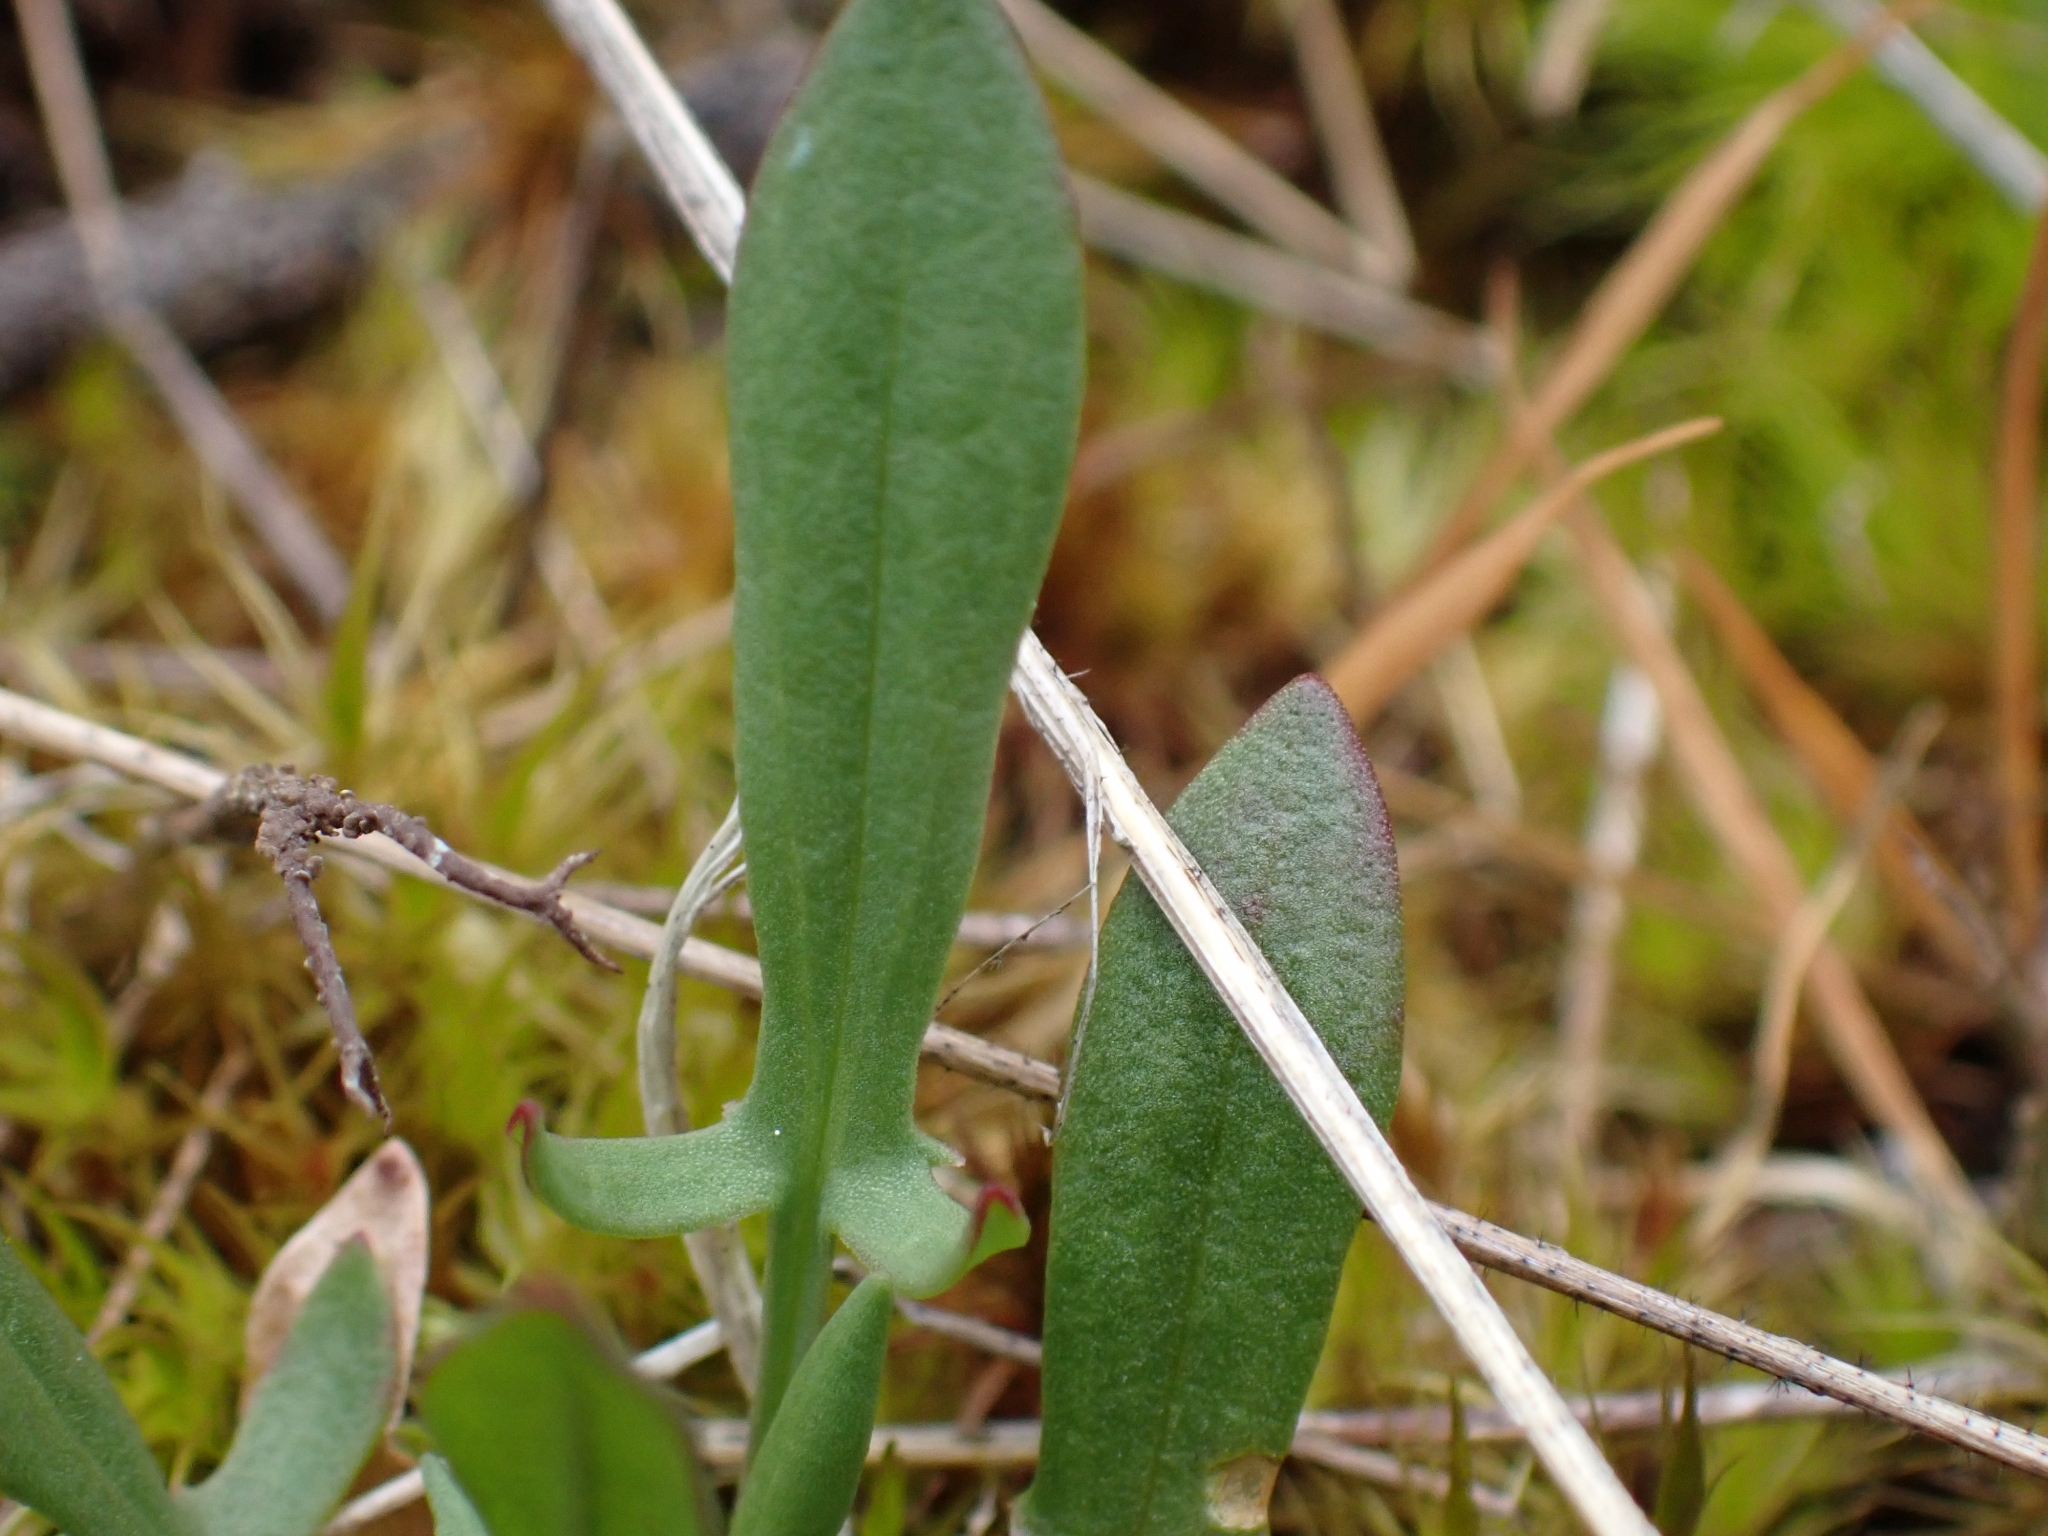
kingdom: Plantae
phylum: Tracheophyta
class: Magnoliopsida
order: Caryophyllales
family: Polygonaceae
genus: Rumex
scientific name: Rumex acetosella
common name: Common sheep sorrel
